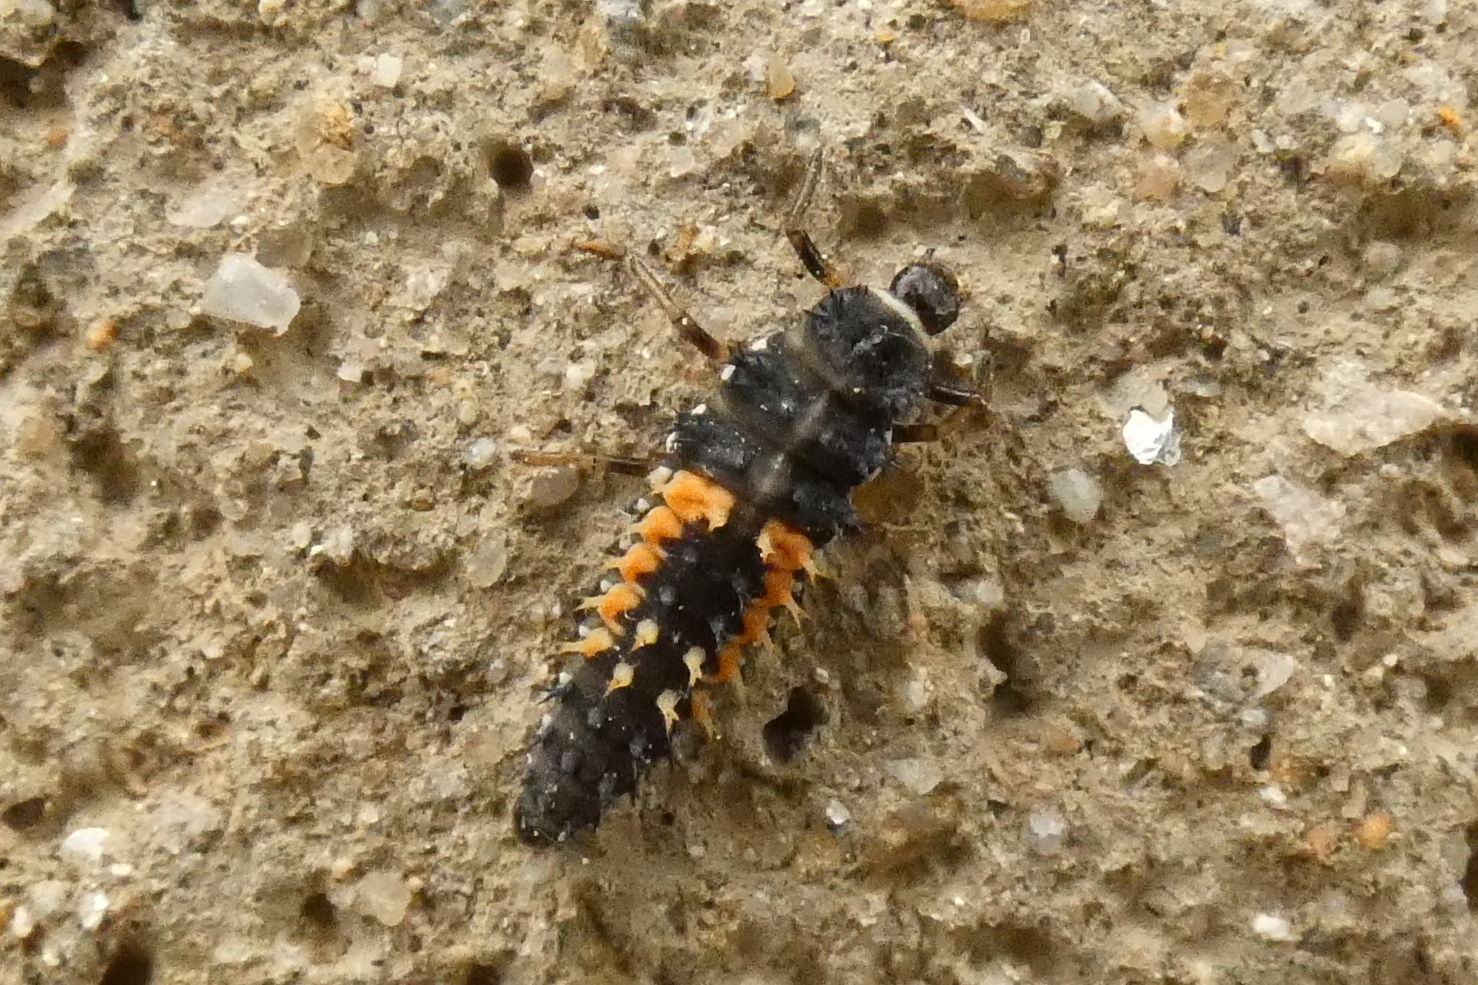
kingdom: Animalia
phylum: Arthropoda
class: Insecta
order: Coleoptera
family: Coccinellidae
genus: Harmonia
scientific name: Harmonia axyridis
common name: Harlequin ladybird
